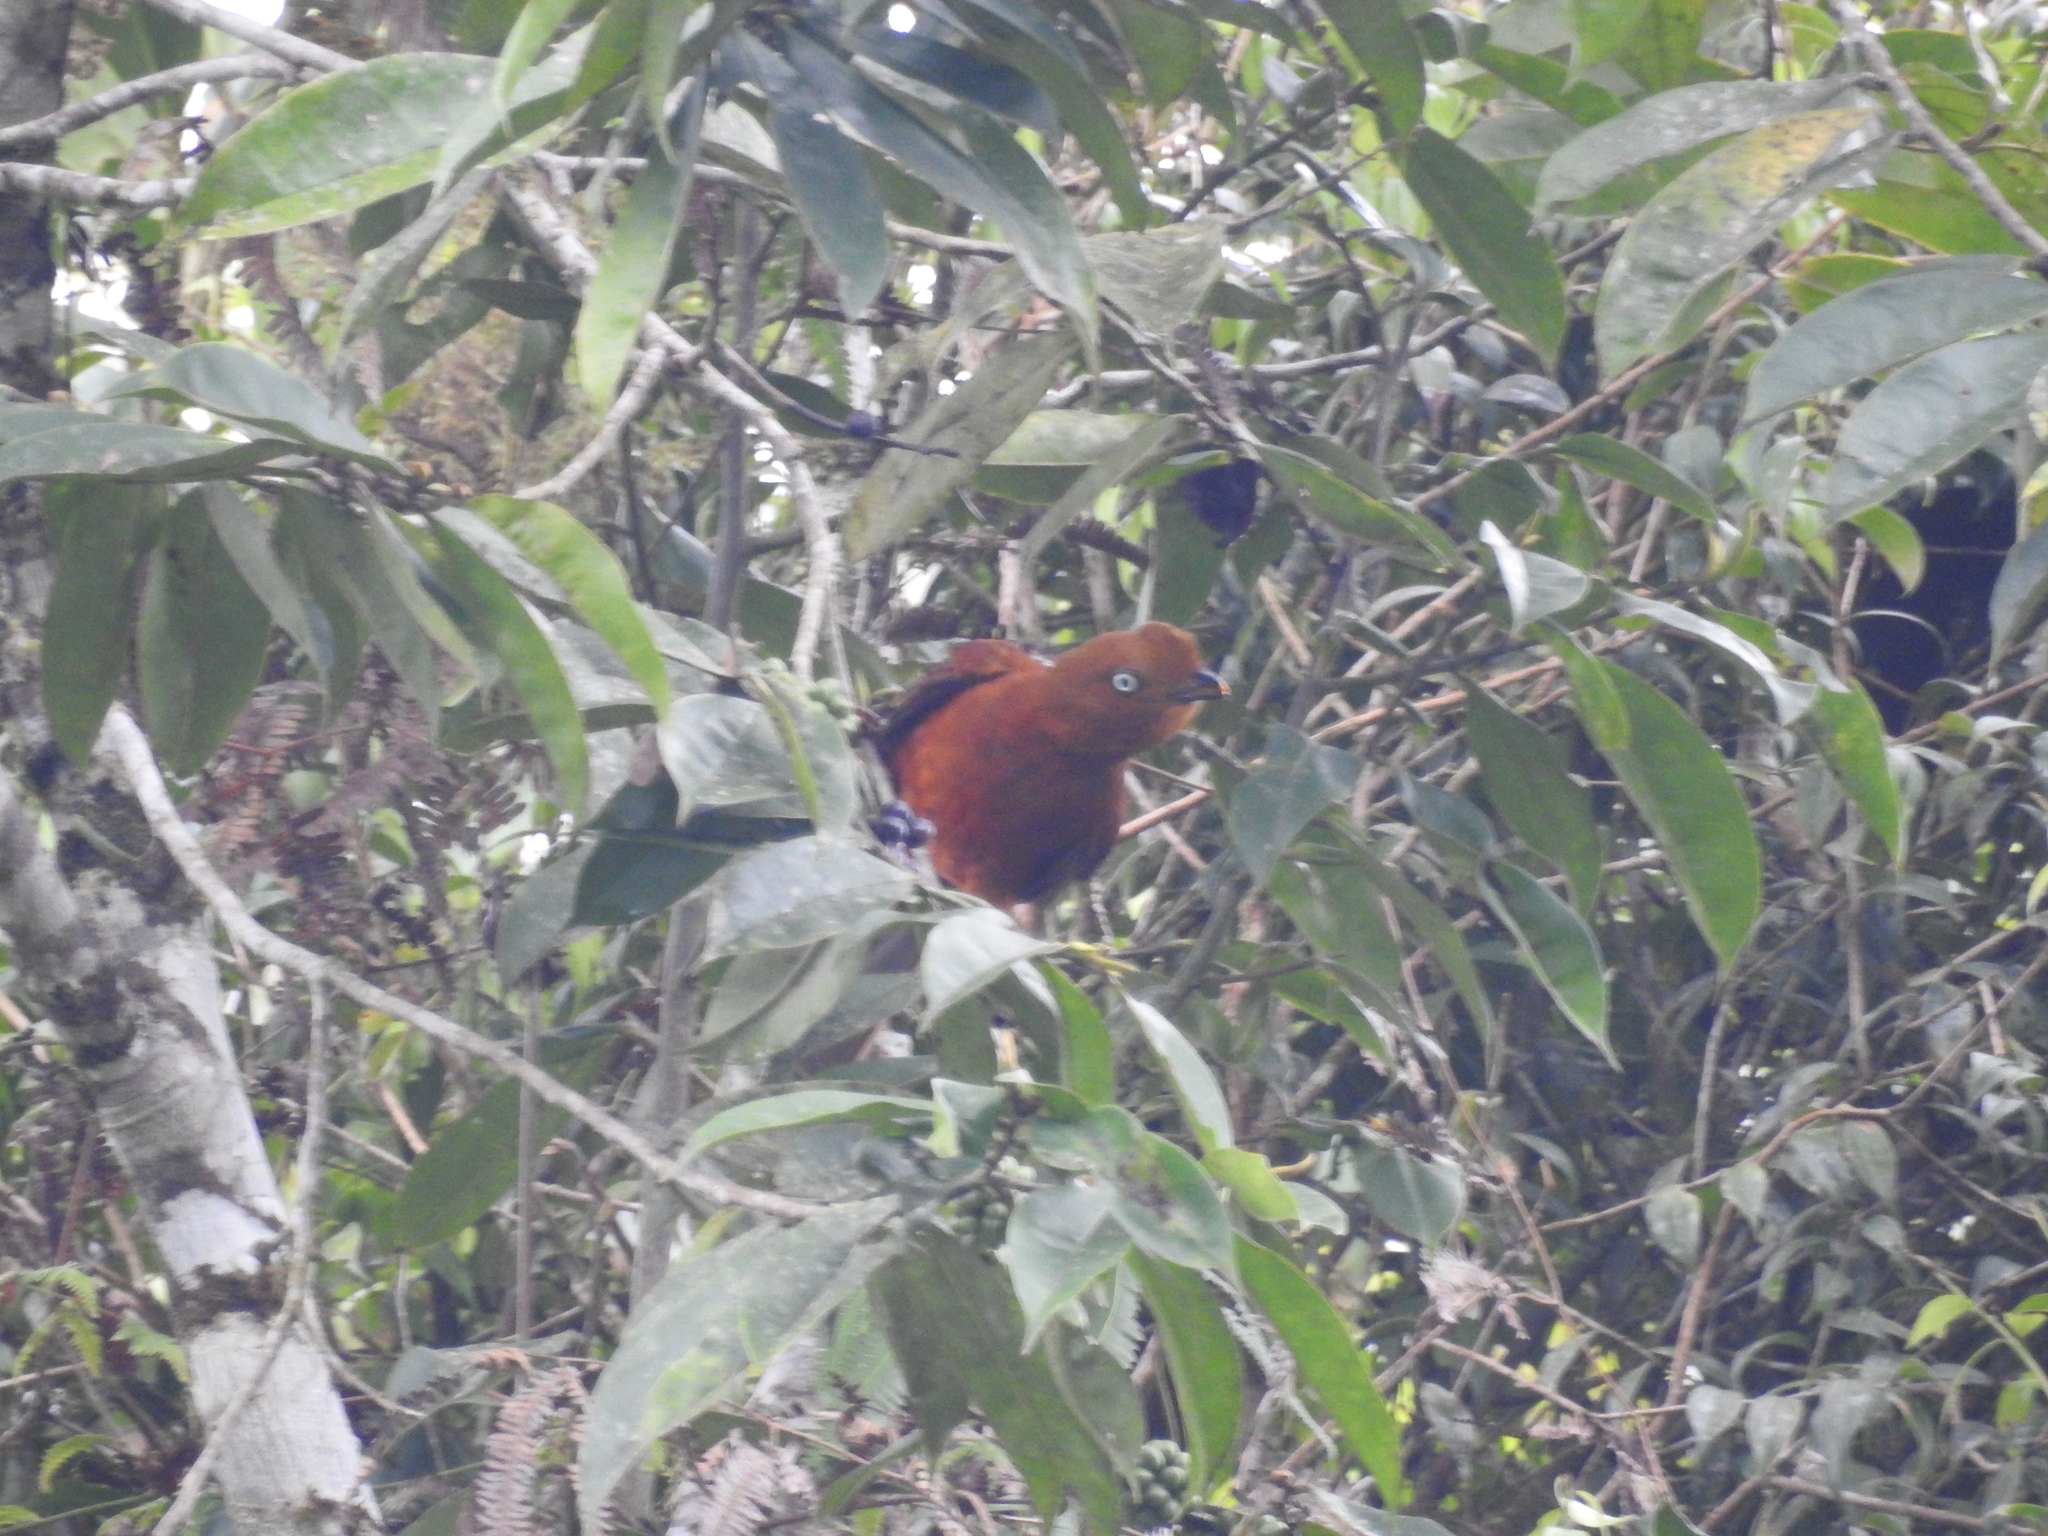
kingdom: Animalia
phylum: Chordata
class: Aves
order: Passeriformes
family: Cotingidae
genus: Rupicola
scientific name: Rupicola peruvianus
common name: Andean cock-of-the-rock
